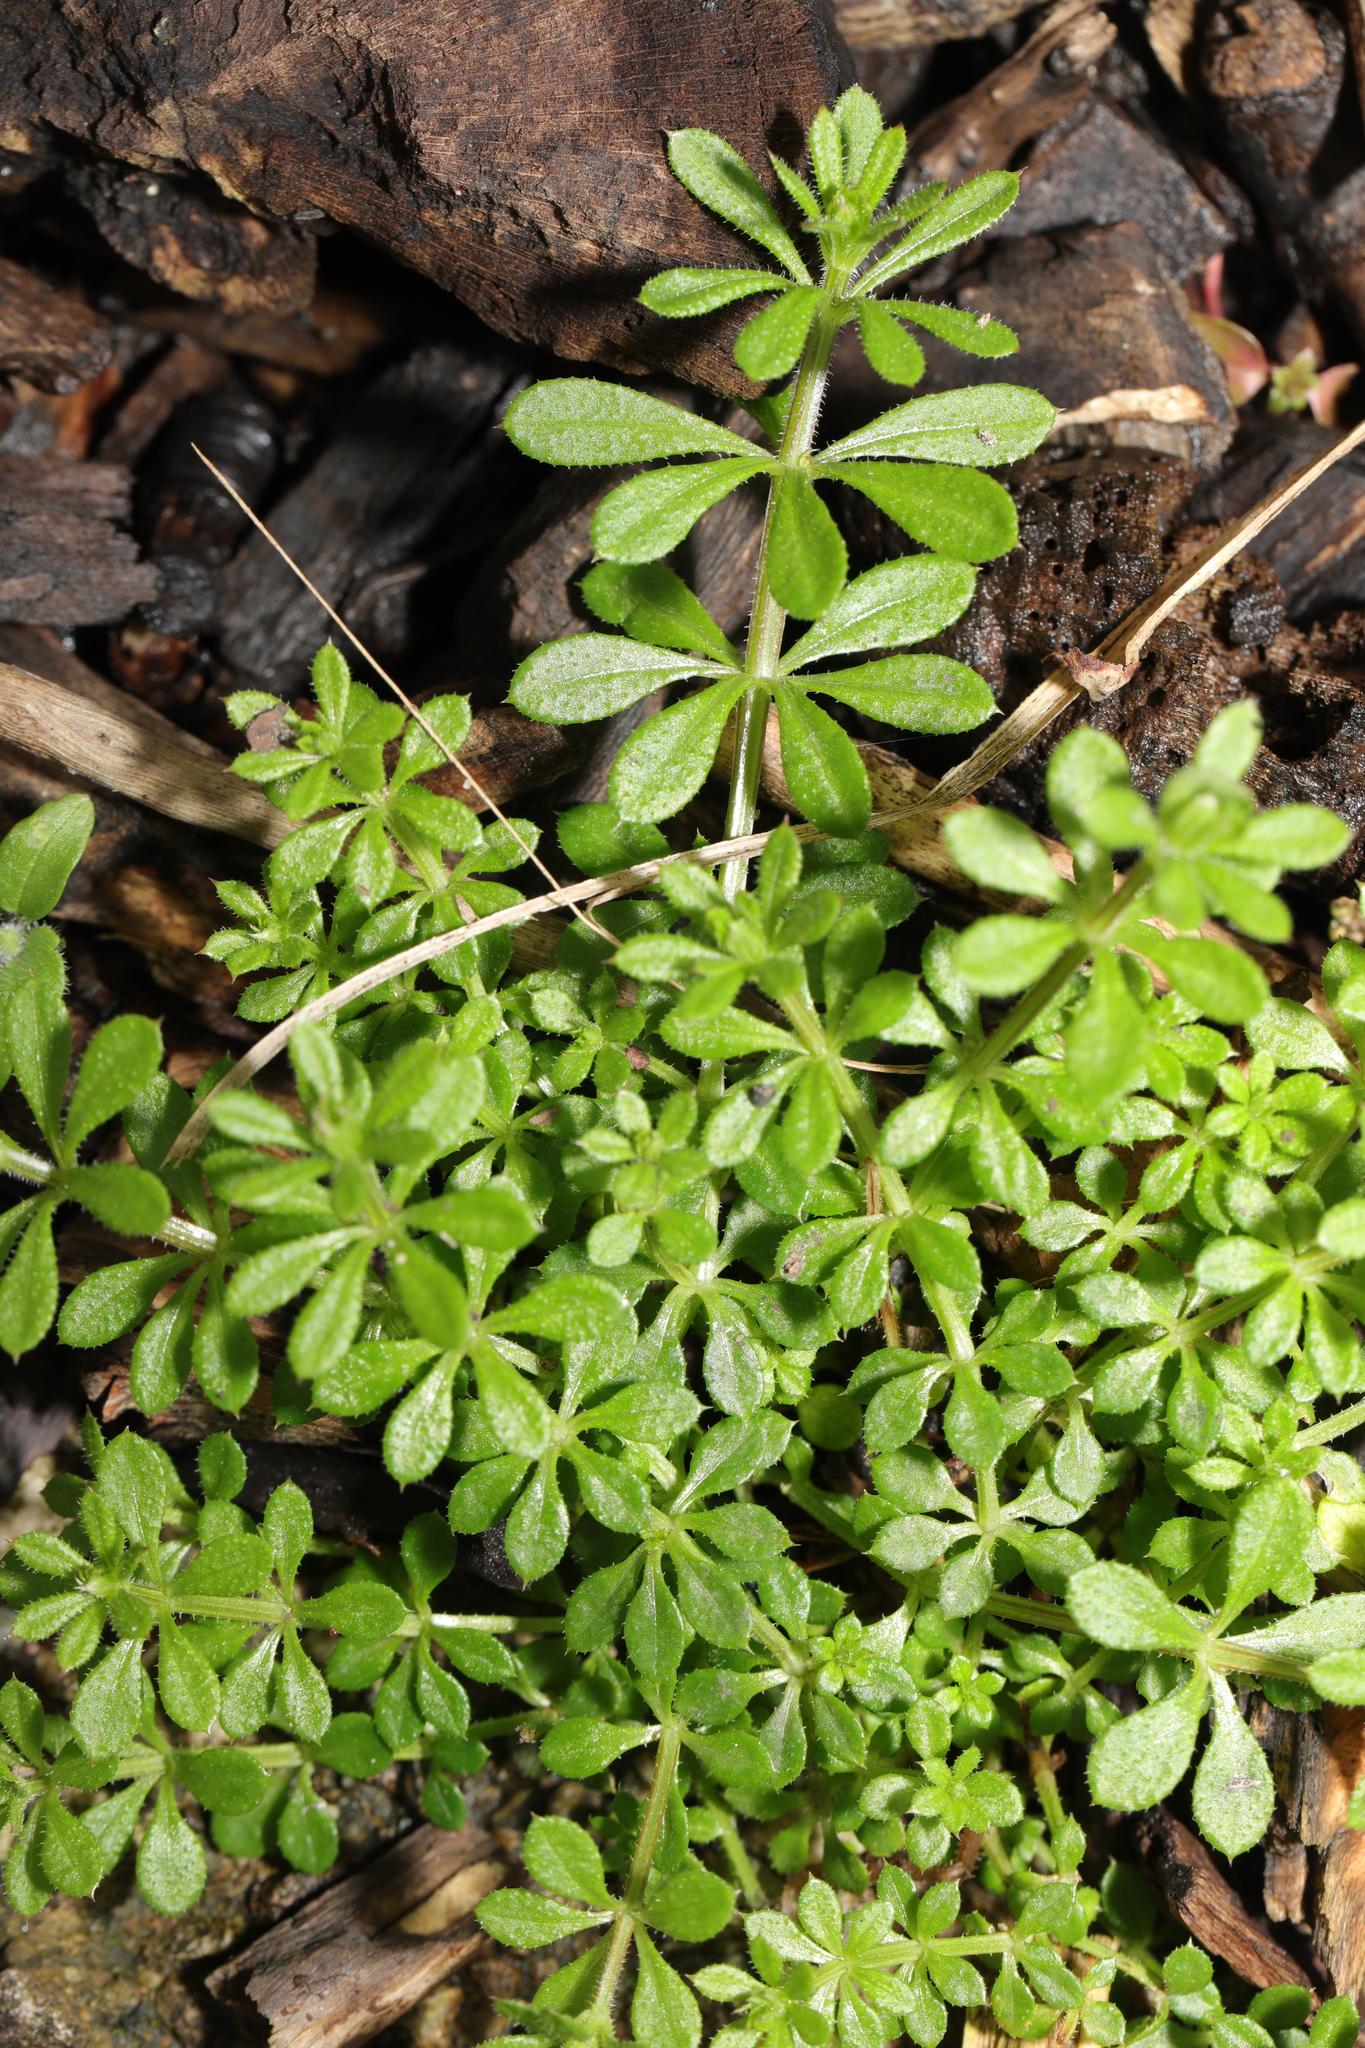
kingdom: Plantae
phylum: Tracheophyta
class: Magnoliopsida
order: Gentianales
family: Rubiaceae
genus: Galium
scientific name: Galium aparine
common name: Cleavers
